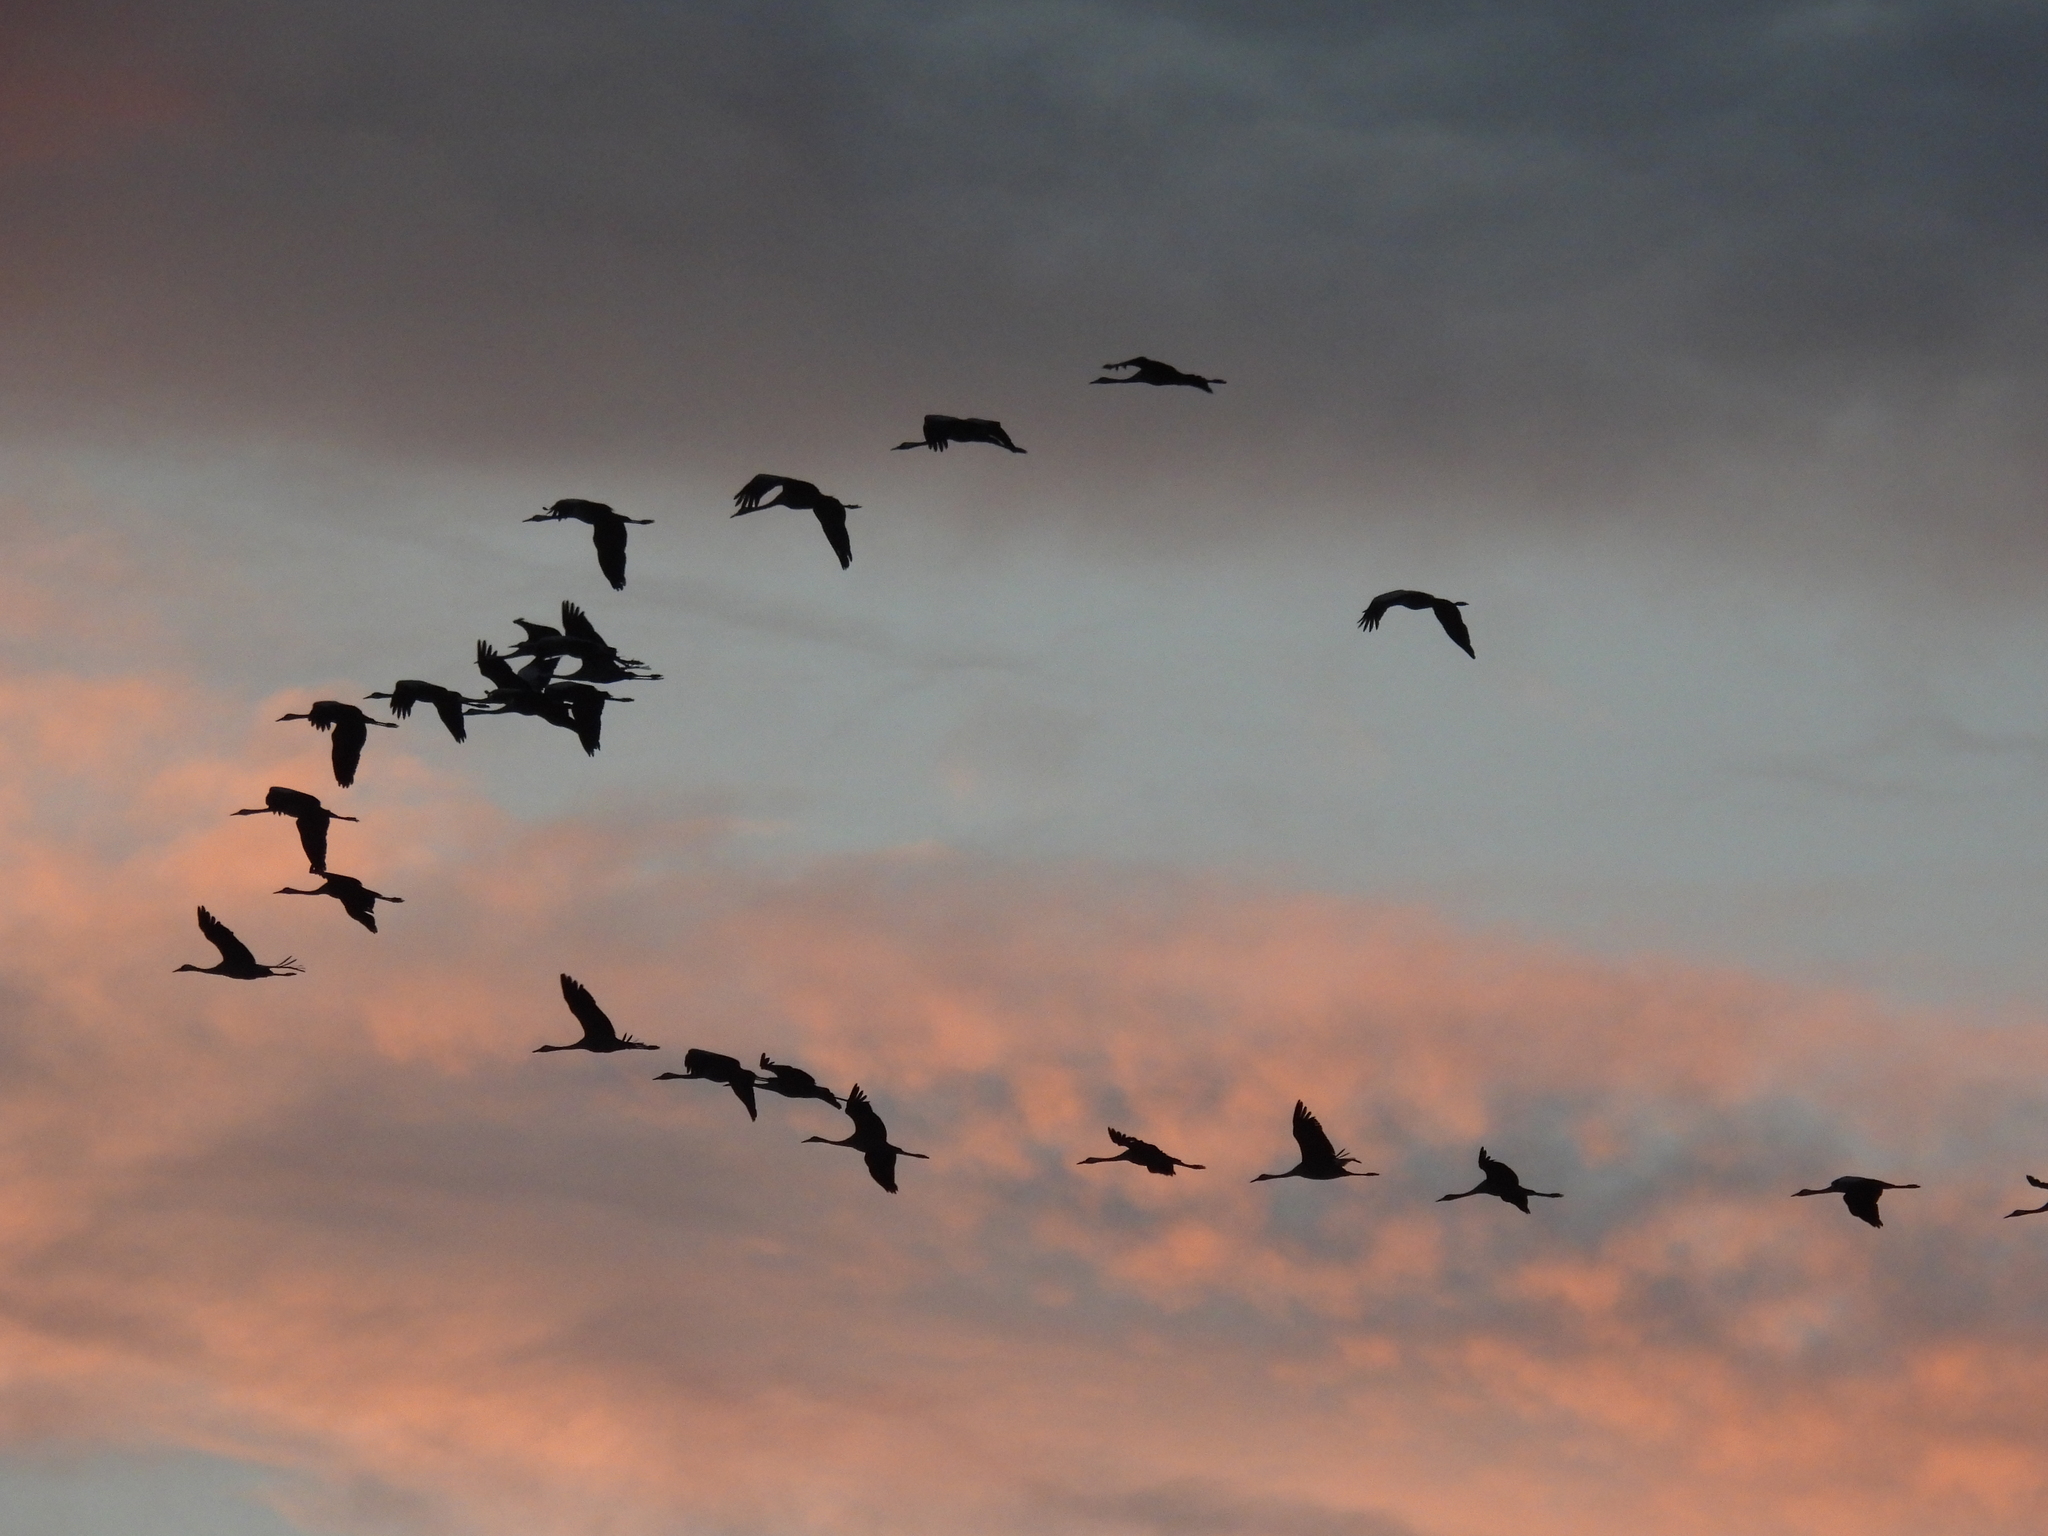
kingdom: Animalia
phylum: Chordata
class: Aves
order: Gruiformes
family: Gruidae
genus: Grus
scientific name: Grus grus
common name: Common crane
